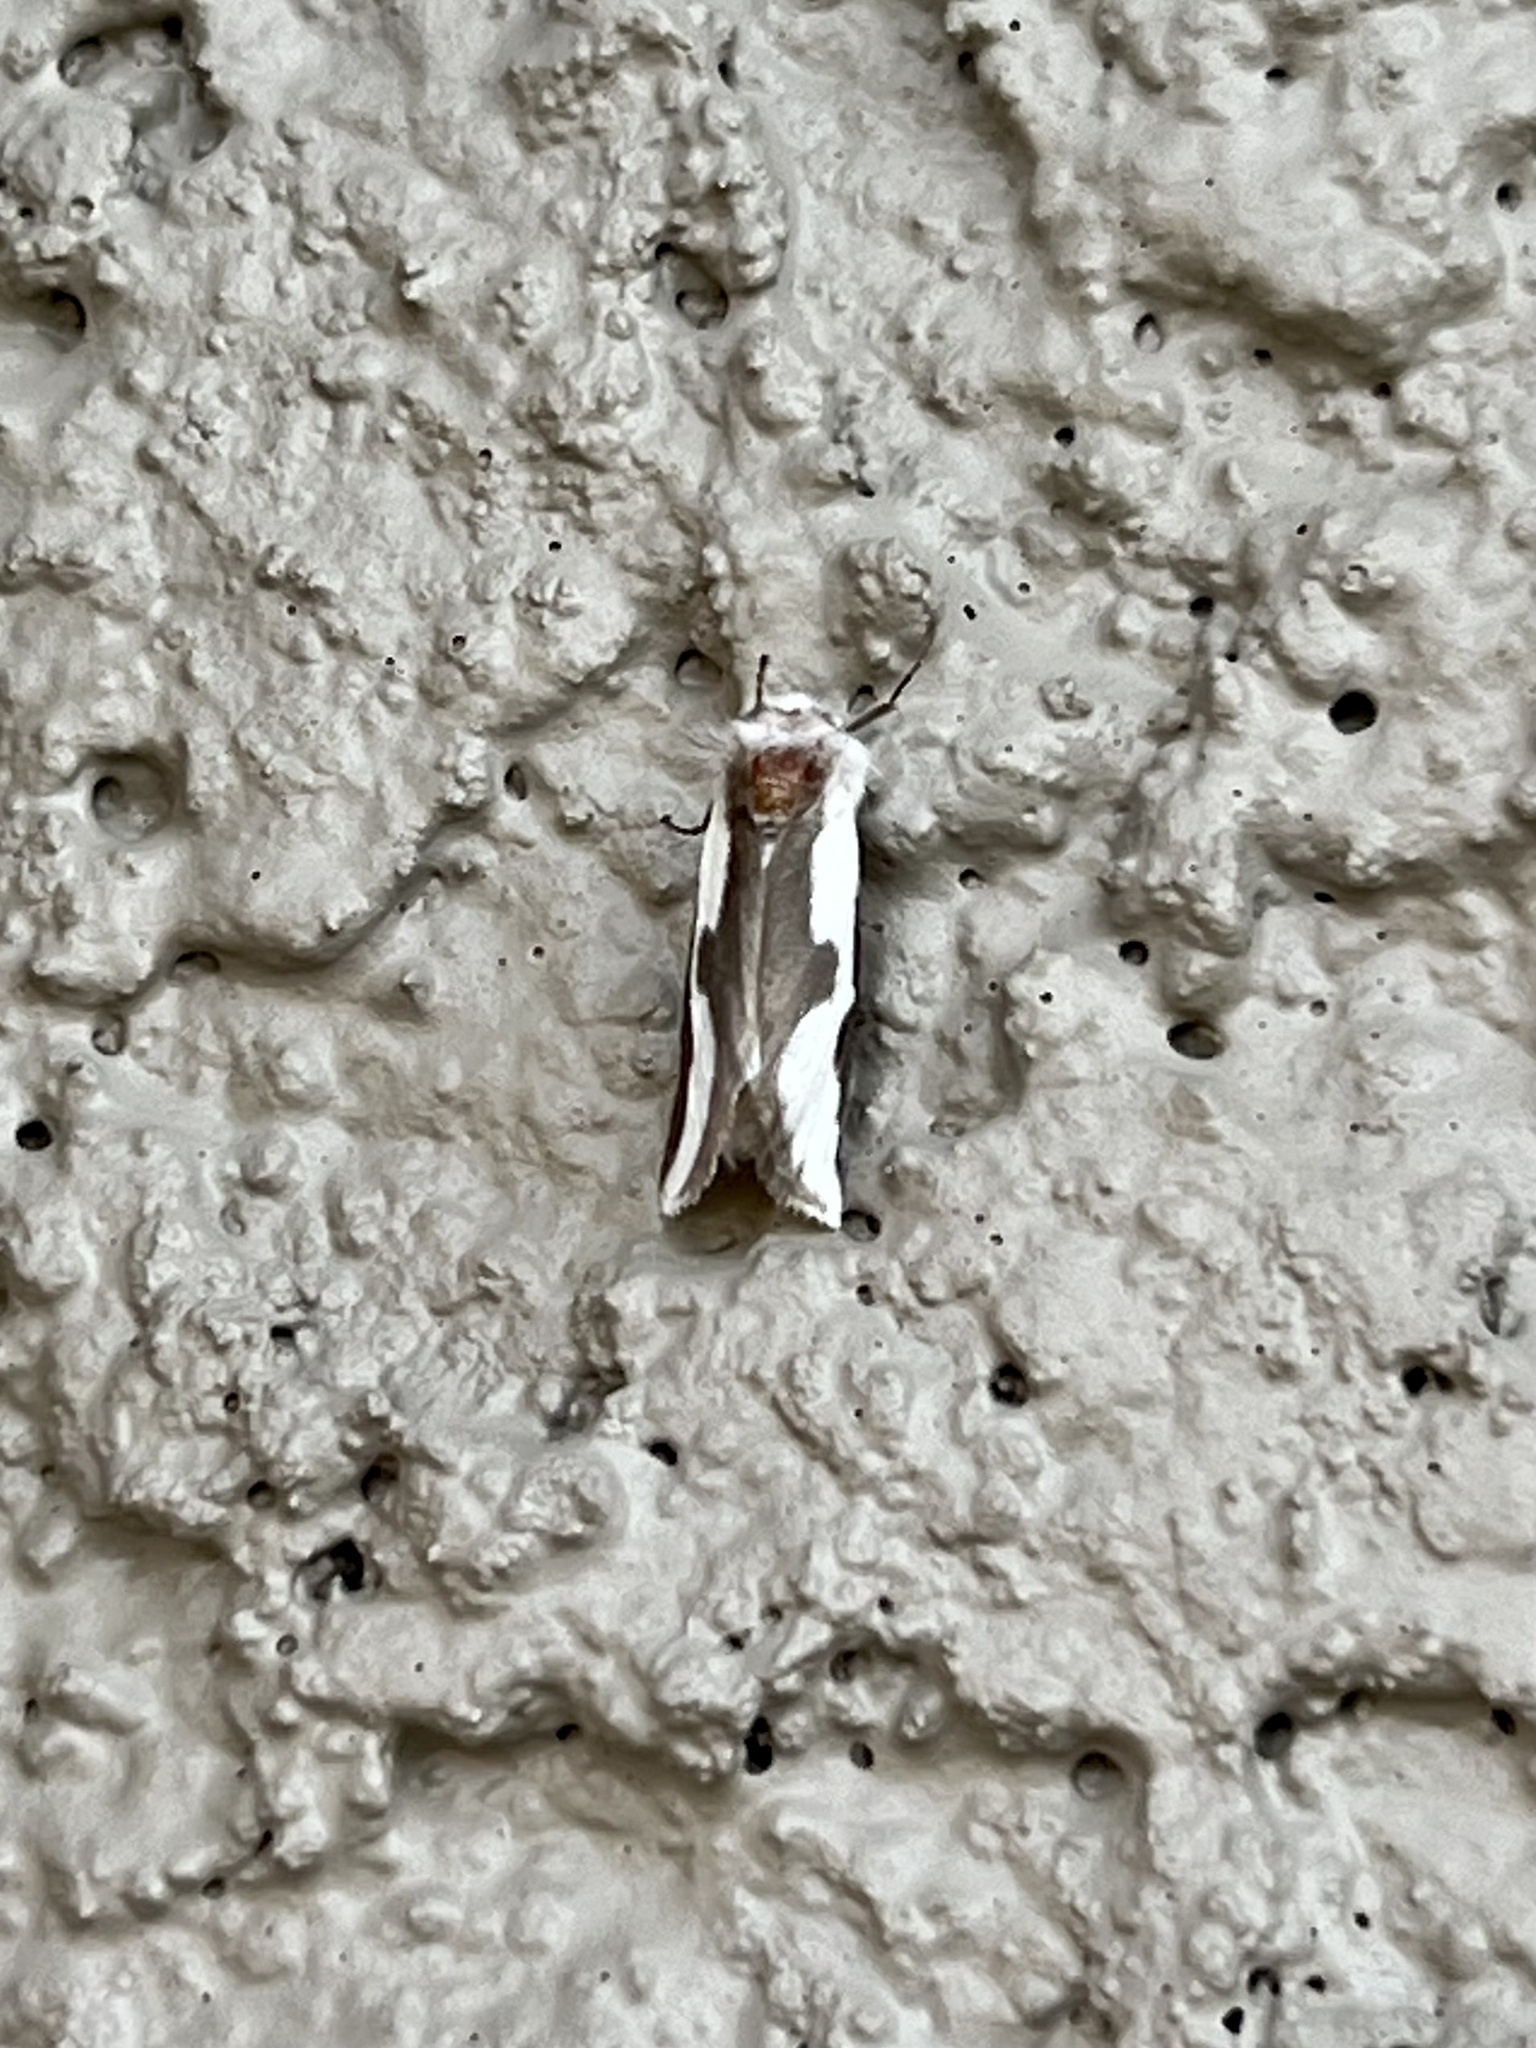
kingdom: Animalia
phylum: Arthropoda
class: Insecta
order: Lepidoptera
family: Megalopygidae
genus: Norape
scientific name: Norape tener
